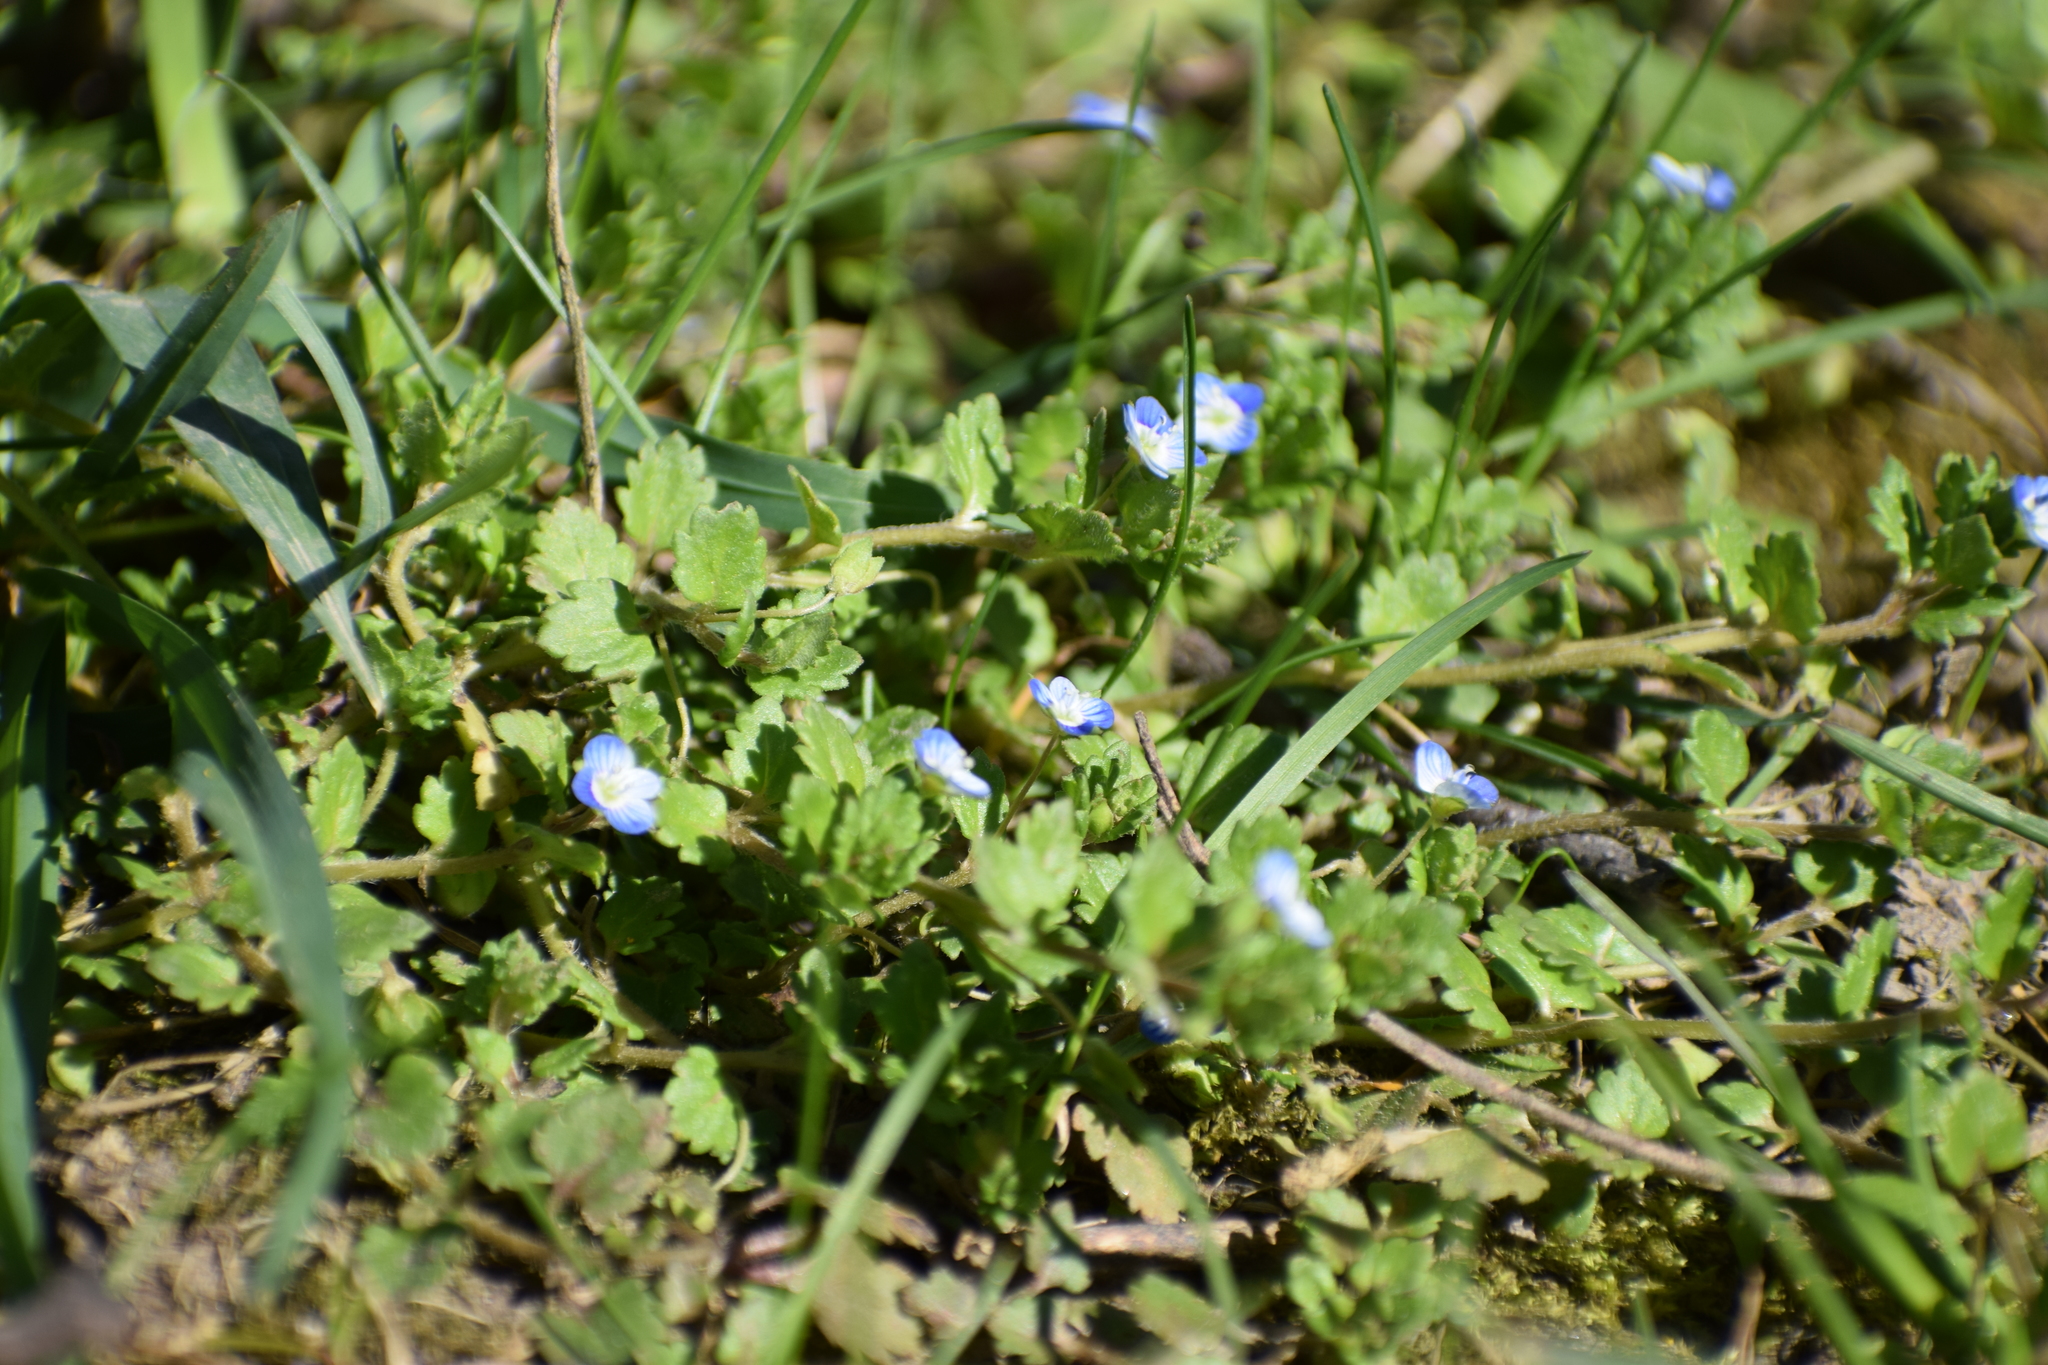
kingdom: Plantae
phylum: Tracheophyta
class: Magnoliopsida
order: Lamiales
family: Plantaginaceae
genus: Veronica
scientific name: Veronica polita
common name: Grey field-speedwell
